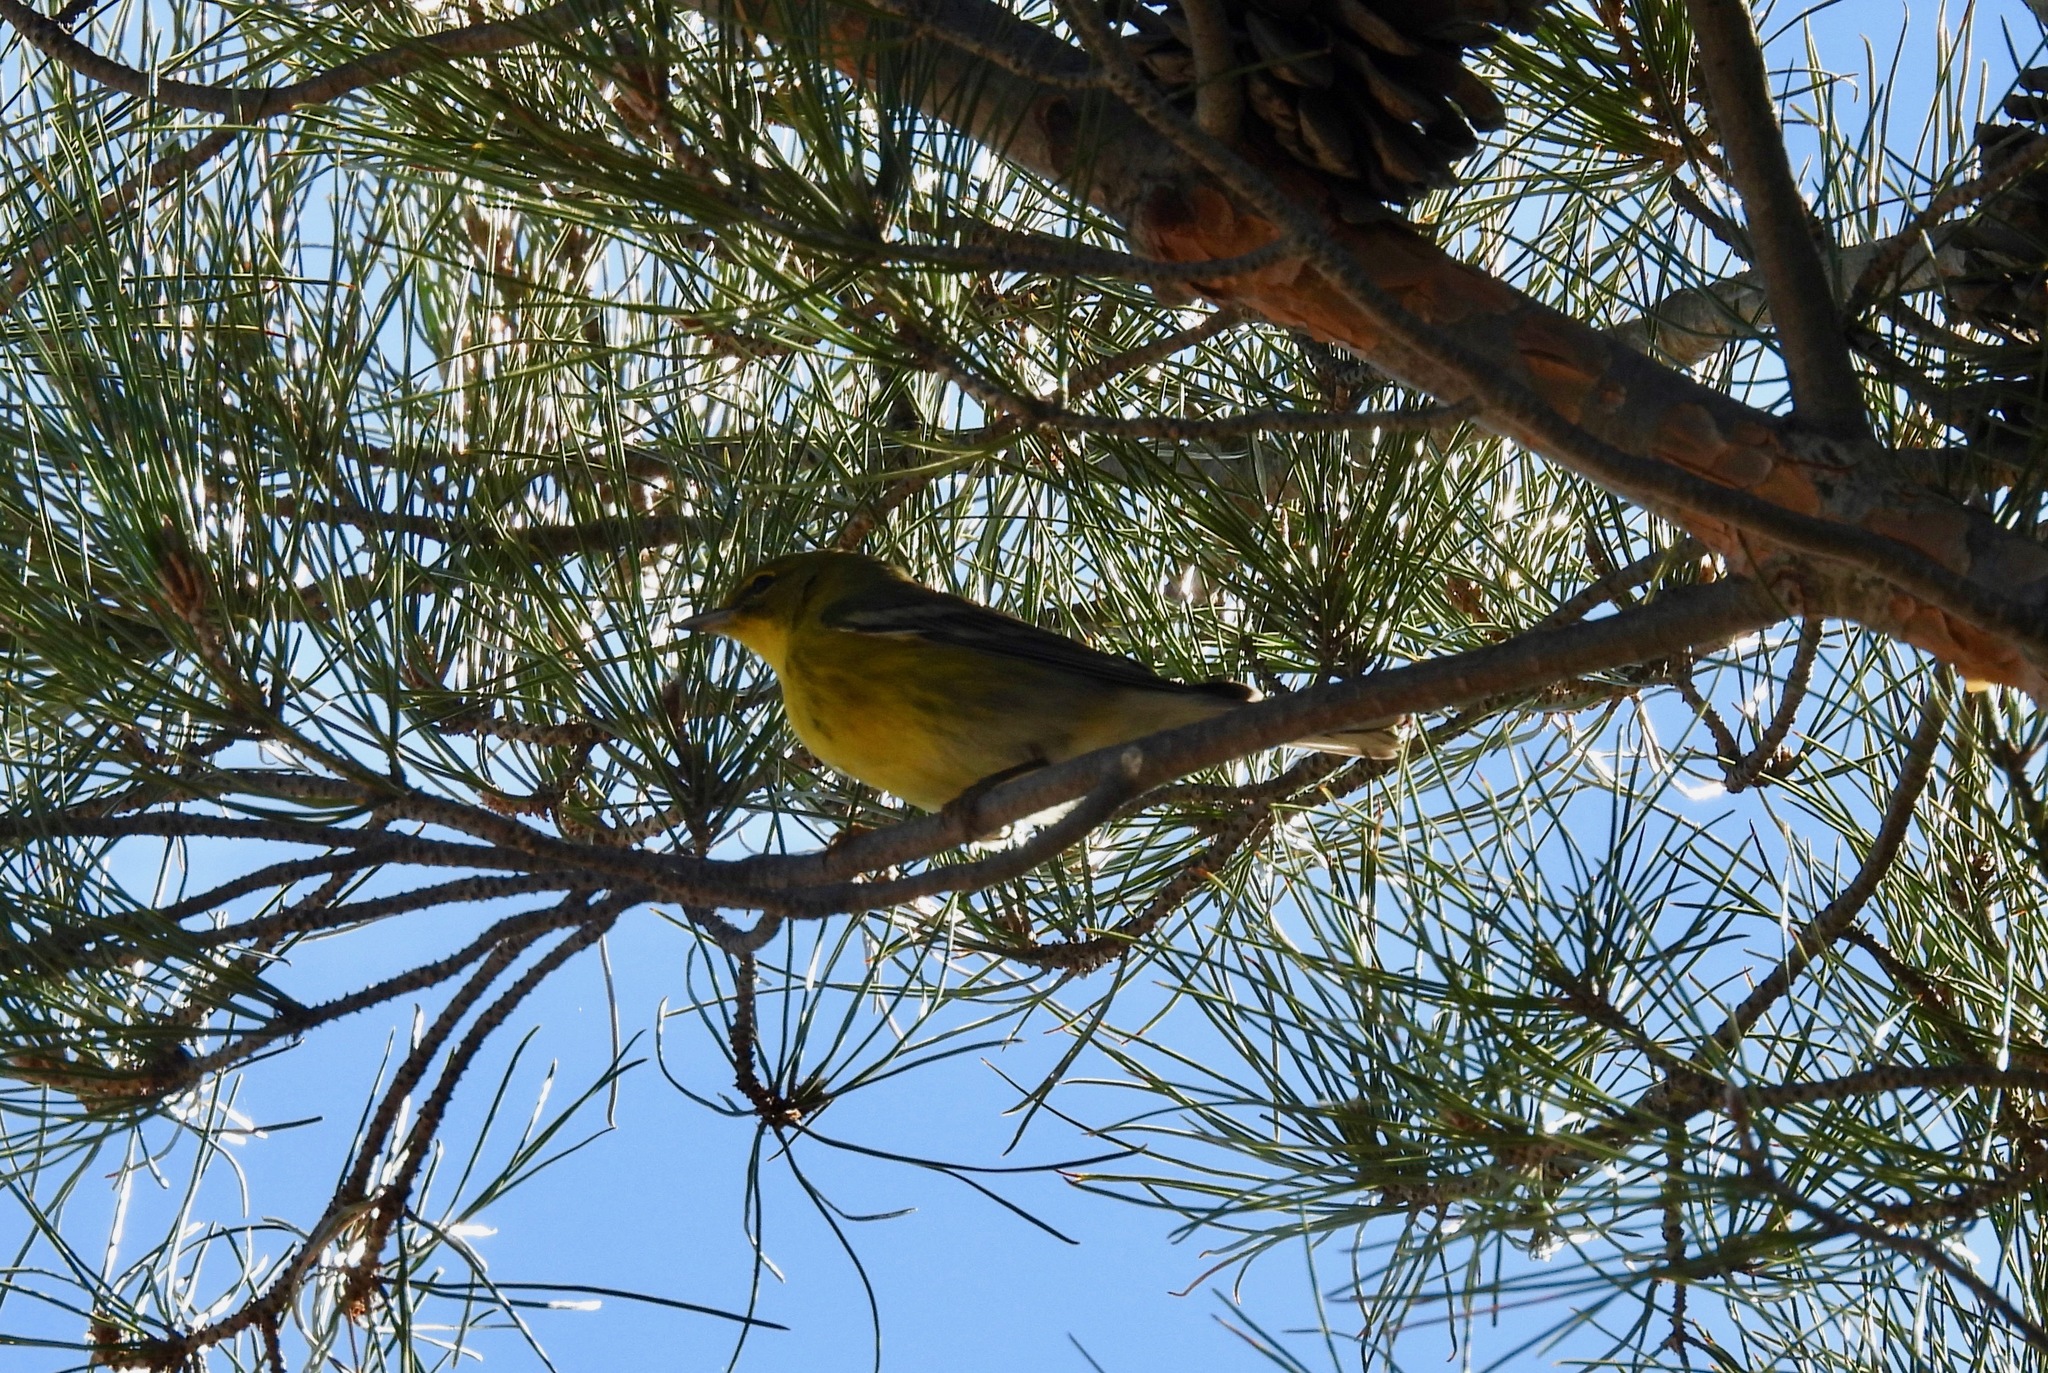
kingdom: Animalia
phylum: Chordata
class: Aves
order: Passeriformes
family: Parulidae
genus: Setophaga
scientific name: Setophaga pinus
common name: Pine warbler
